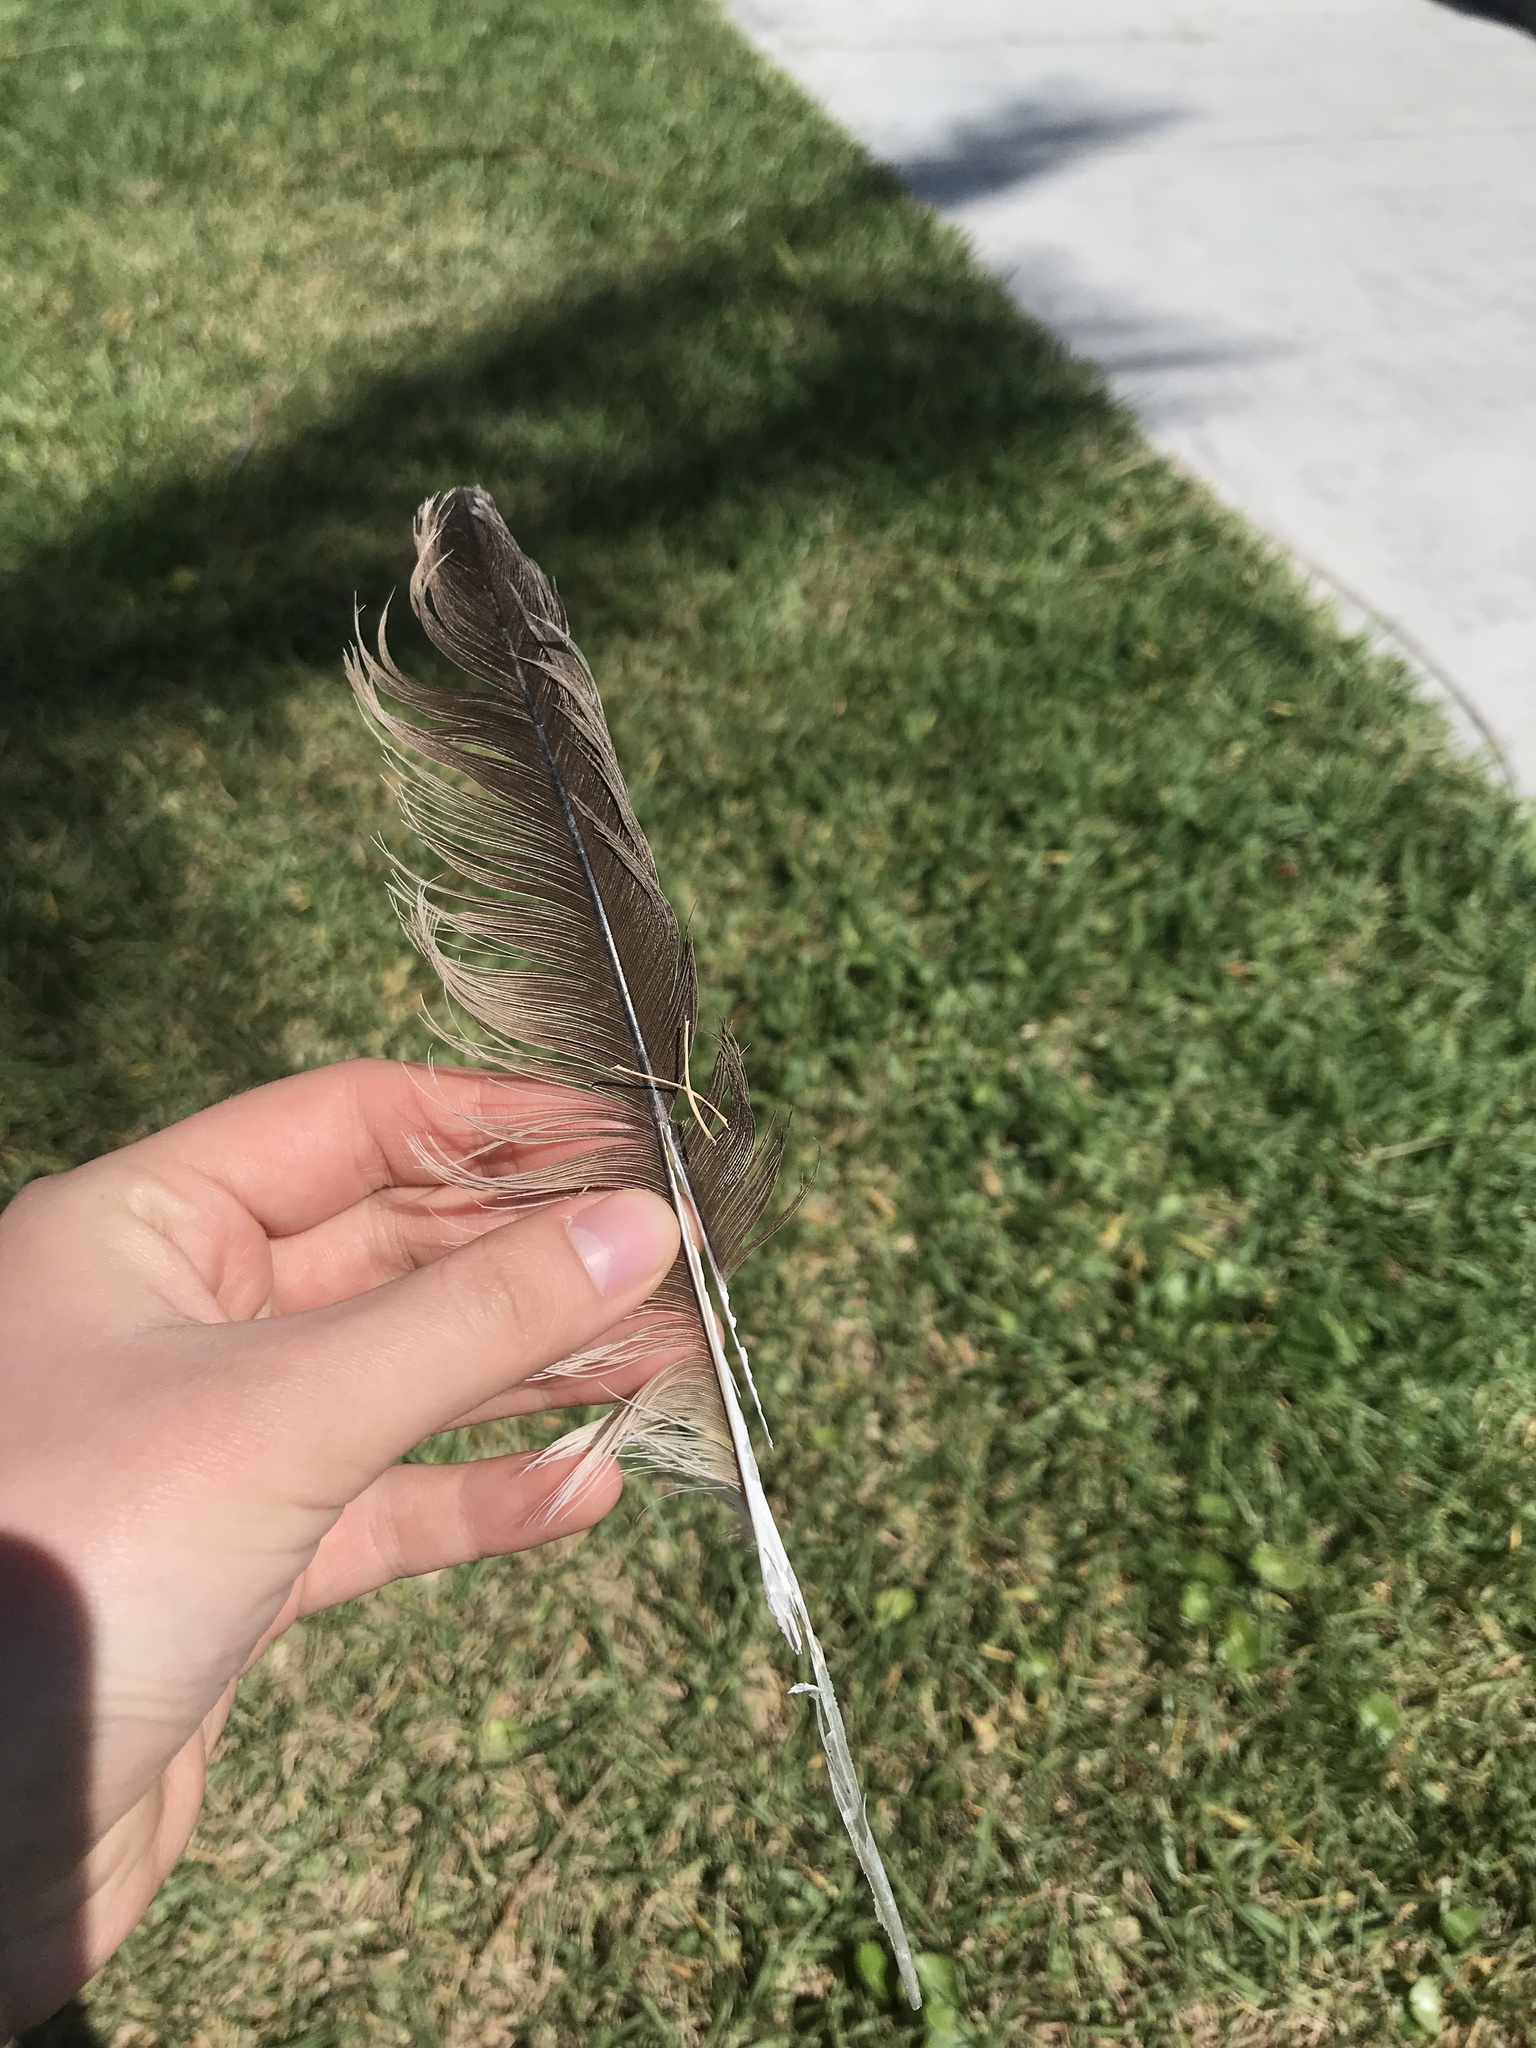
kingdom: Animalia
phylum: Chordata
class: Aves
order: Pelecaniformes
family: Pelecanidae
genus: Pelecanus
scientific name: Pelecanus occidentalis
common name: Brown pelican
